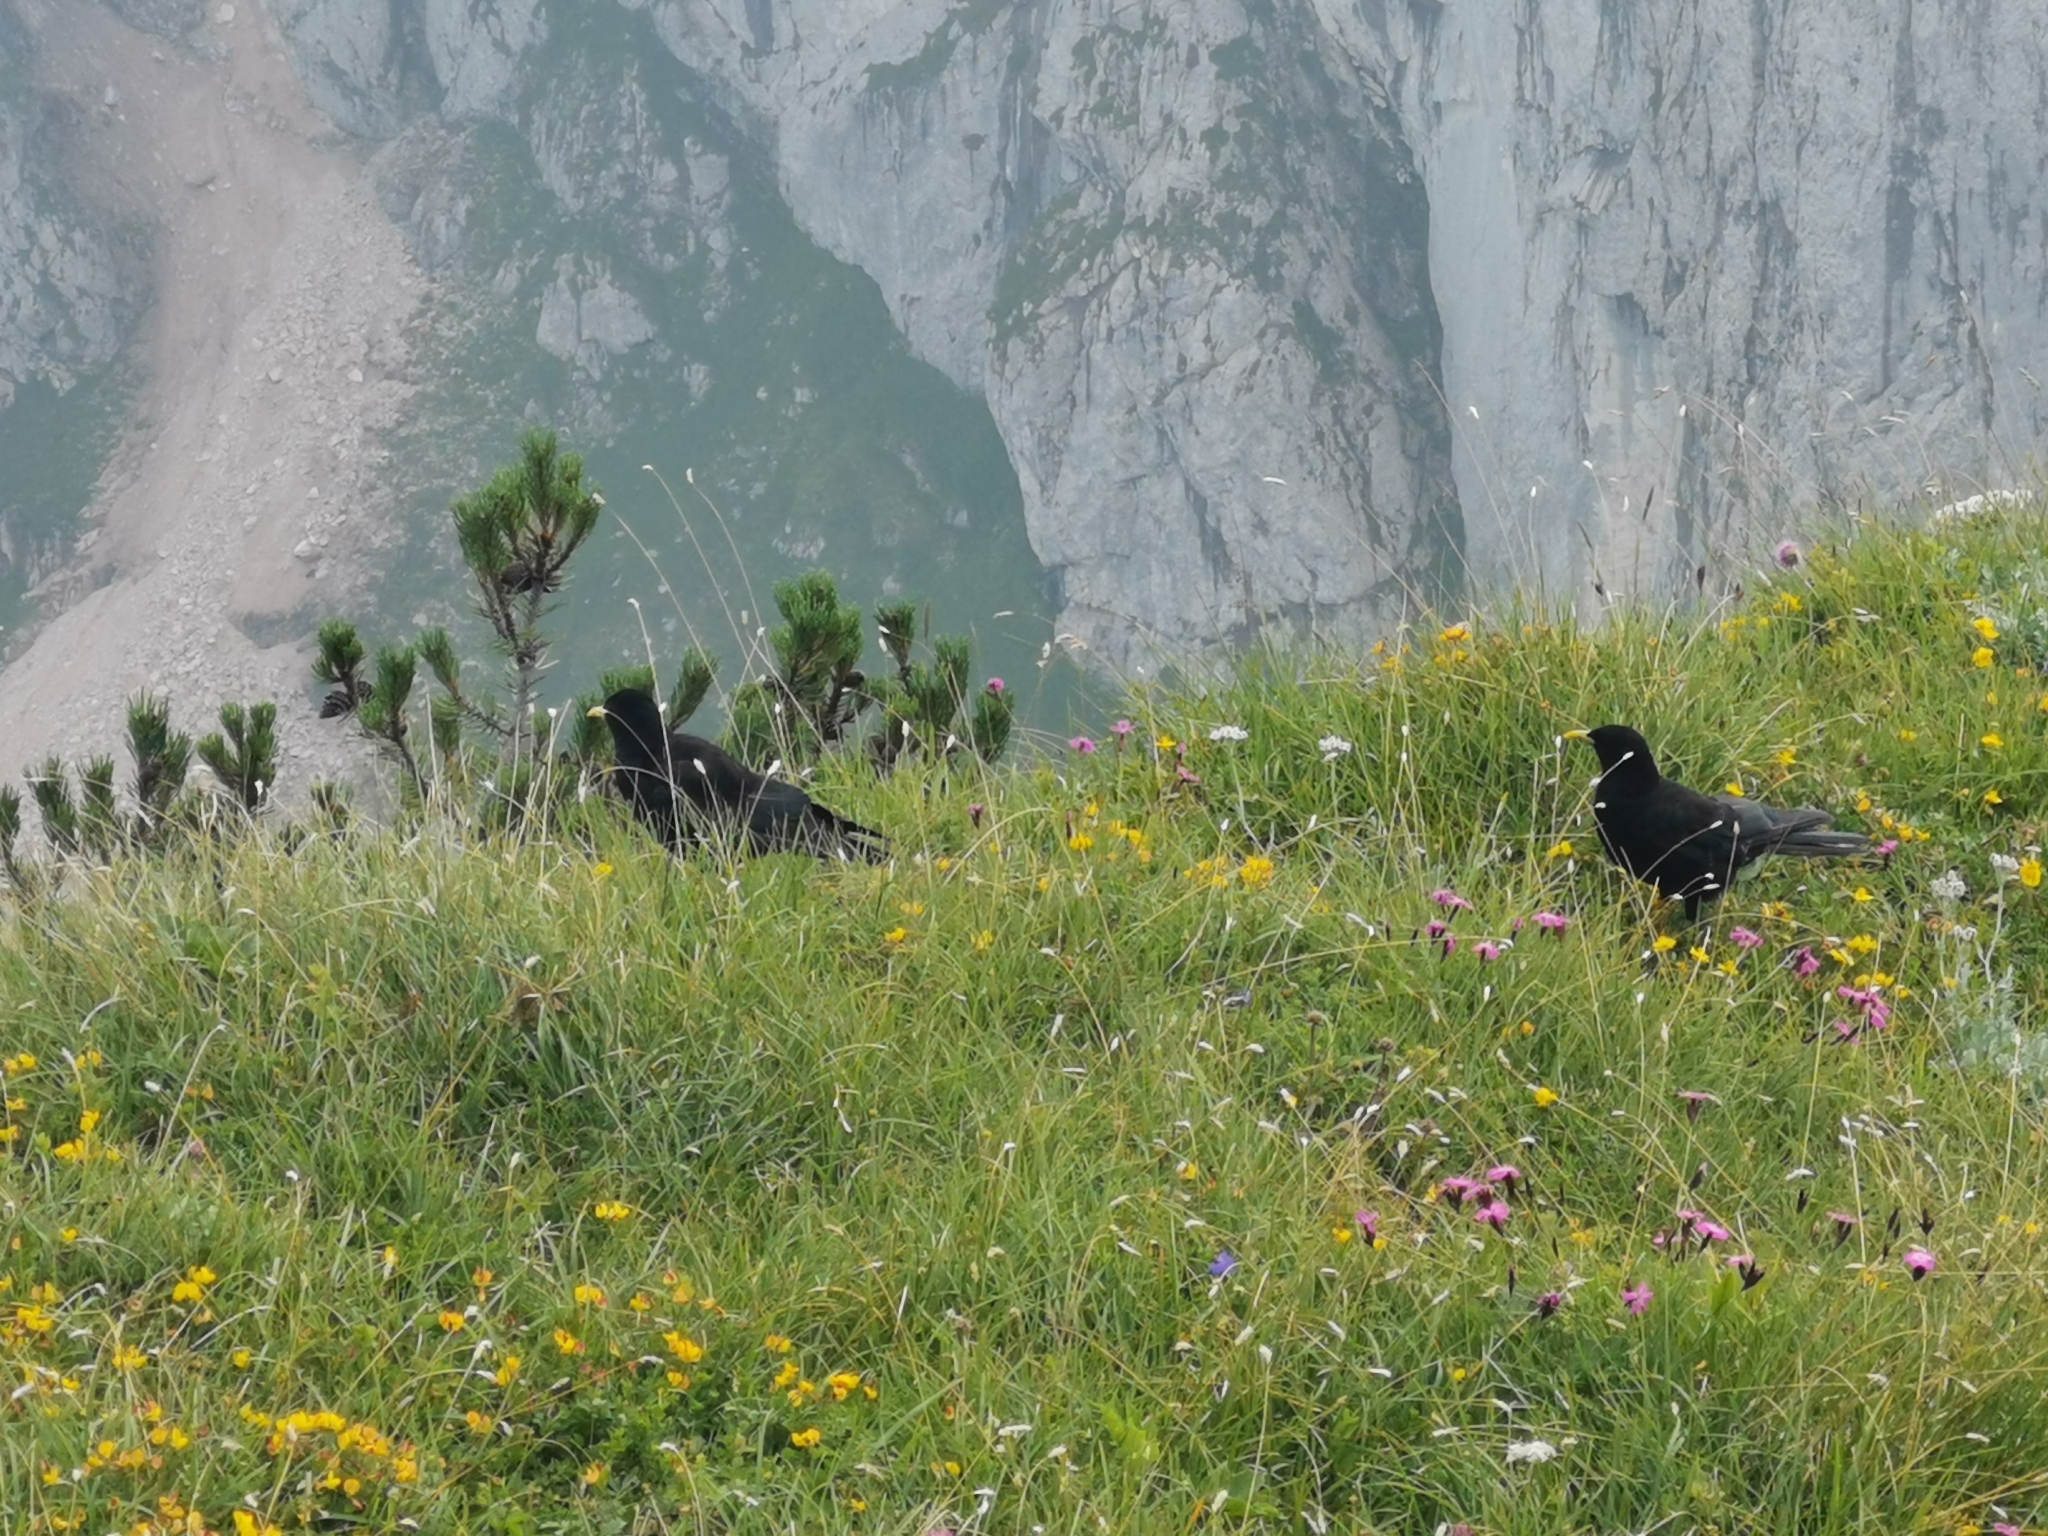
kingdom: Animalia
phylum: Chordata
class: Aves
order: Passeriformes
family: Corvidae
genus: Pyrrhocorax
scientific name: Pyrrhocorax graculus
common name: Alpine chough
